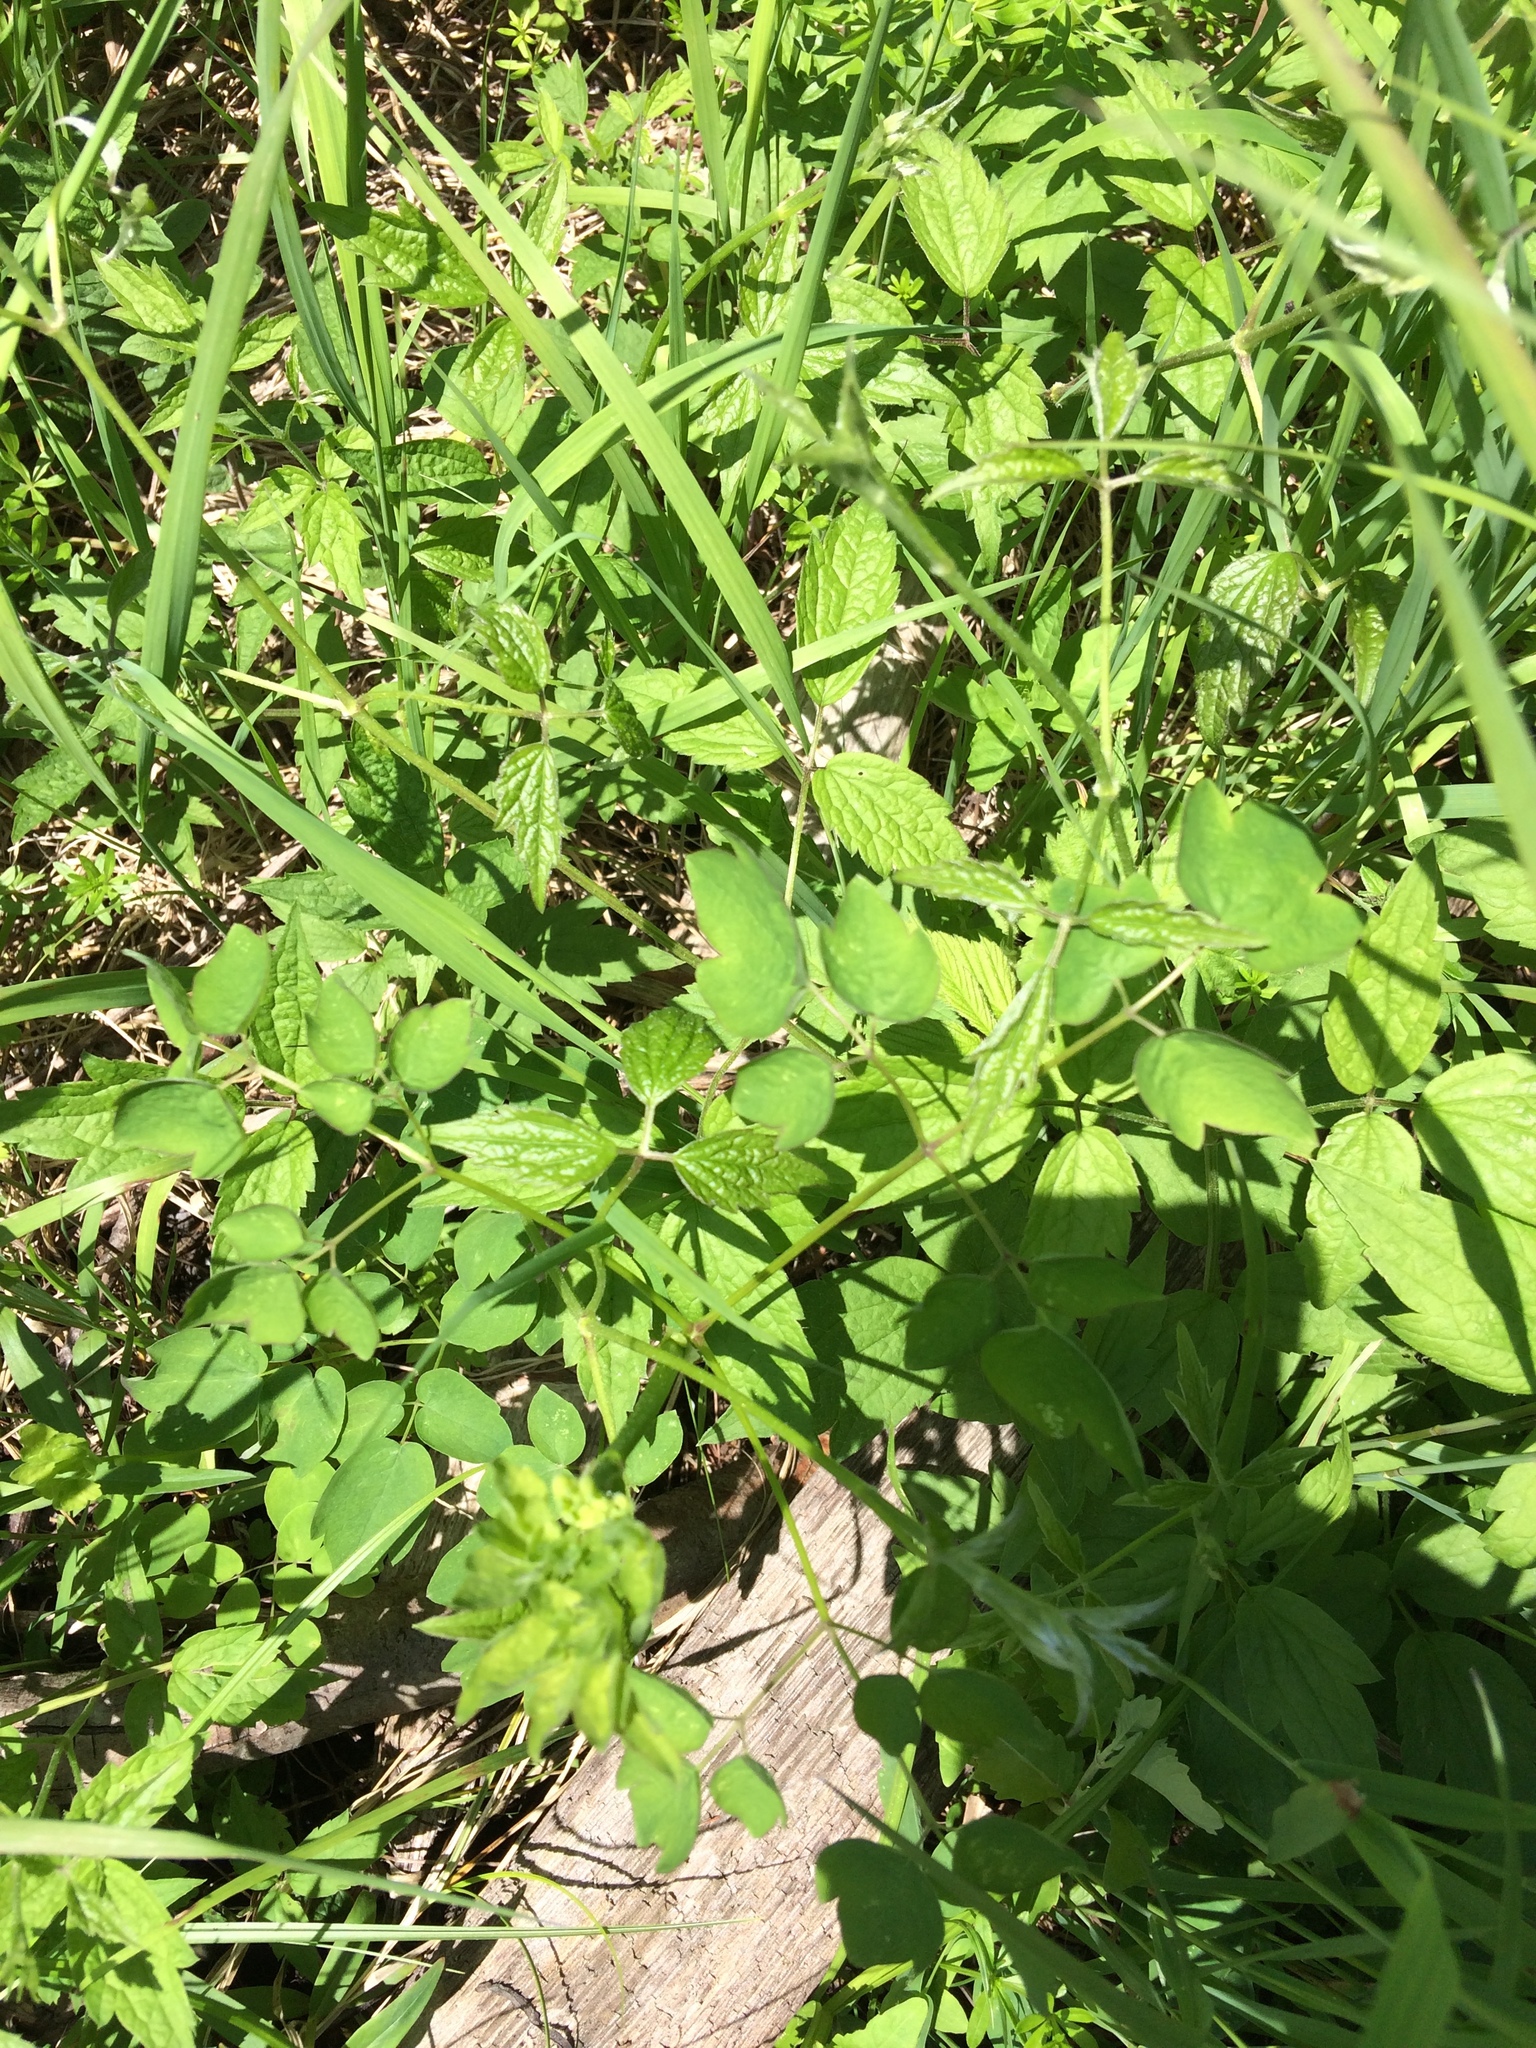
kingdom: Plantae
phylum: Tracheophyta
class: Magnoliopsida
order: Ranunculales
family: Ranunculaceae
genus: Clematis
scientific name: Clematis virginiana
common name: Virgin's-bower
